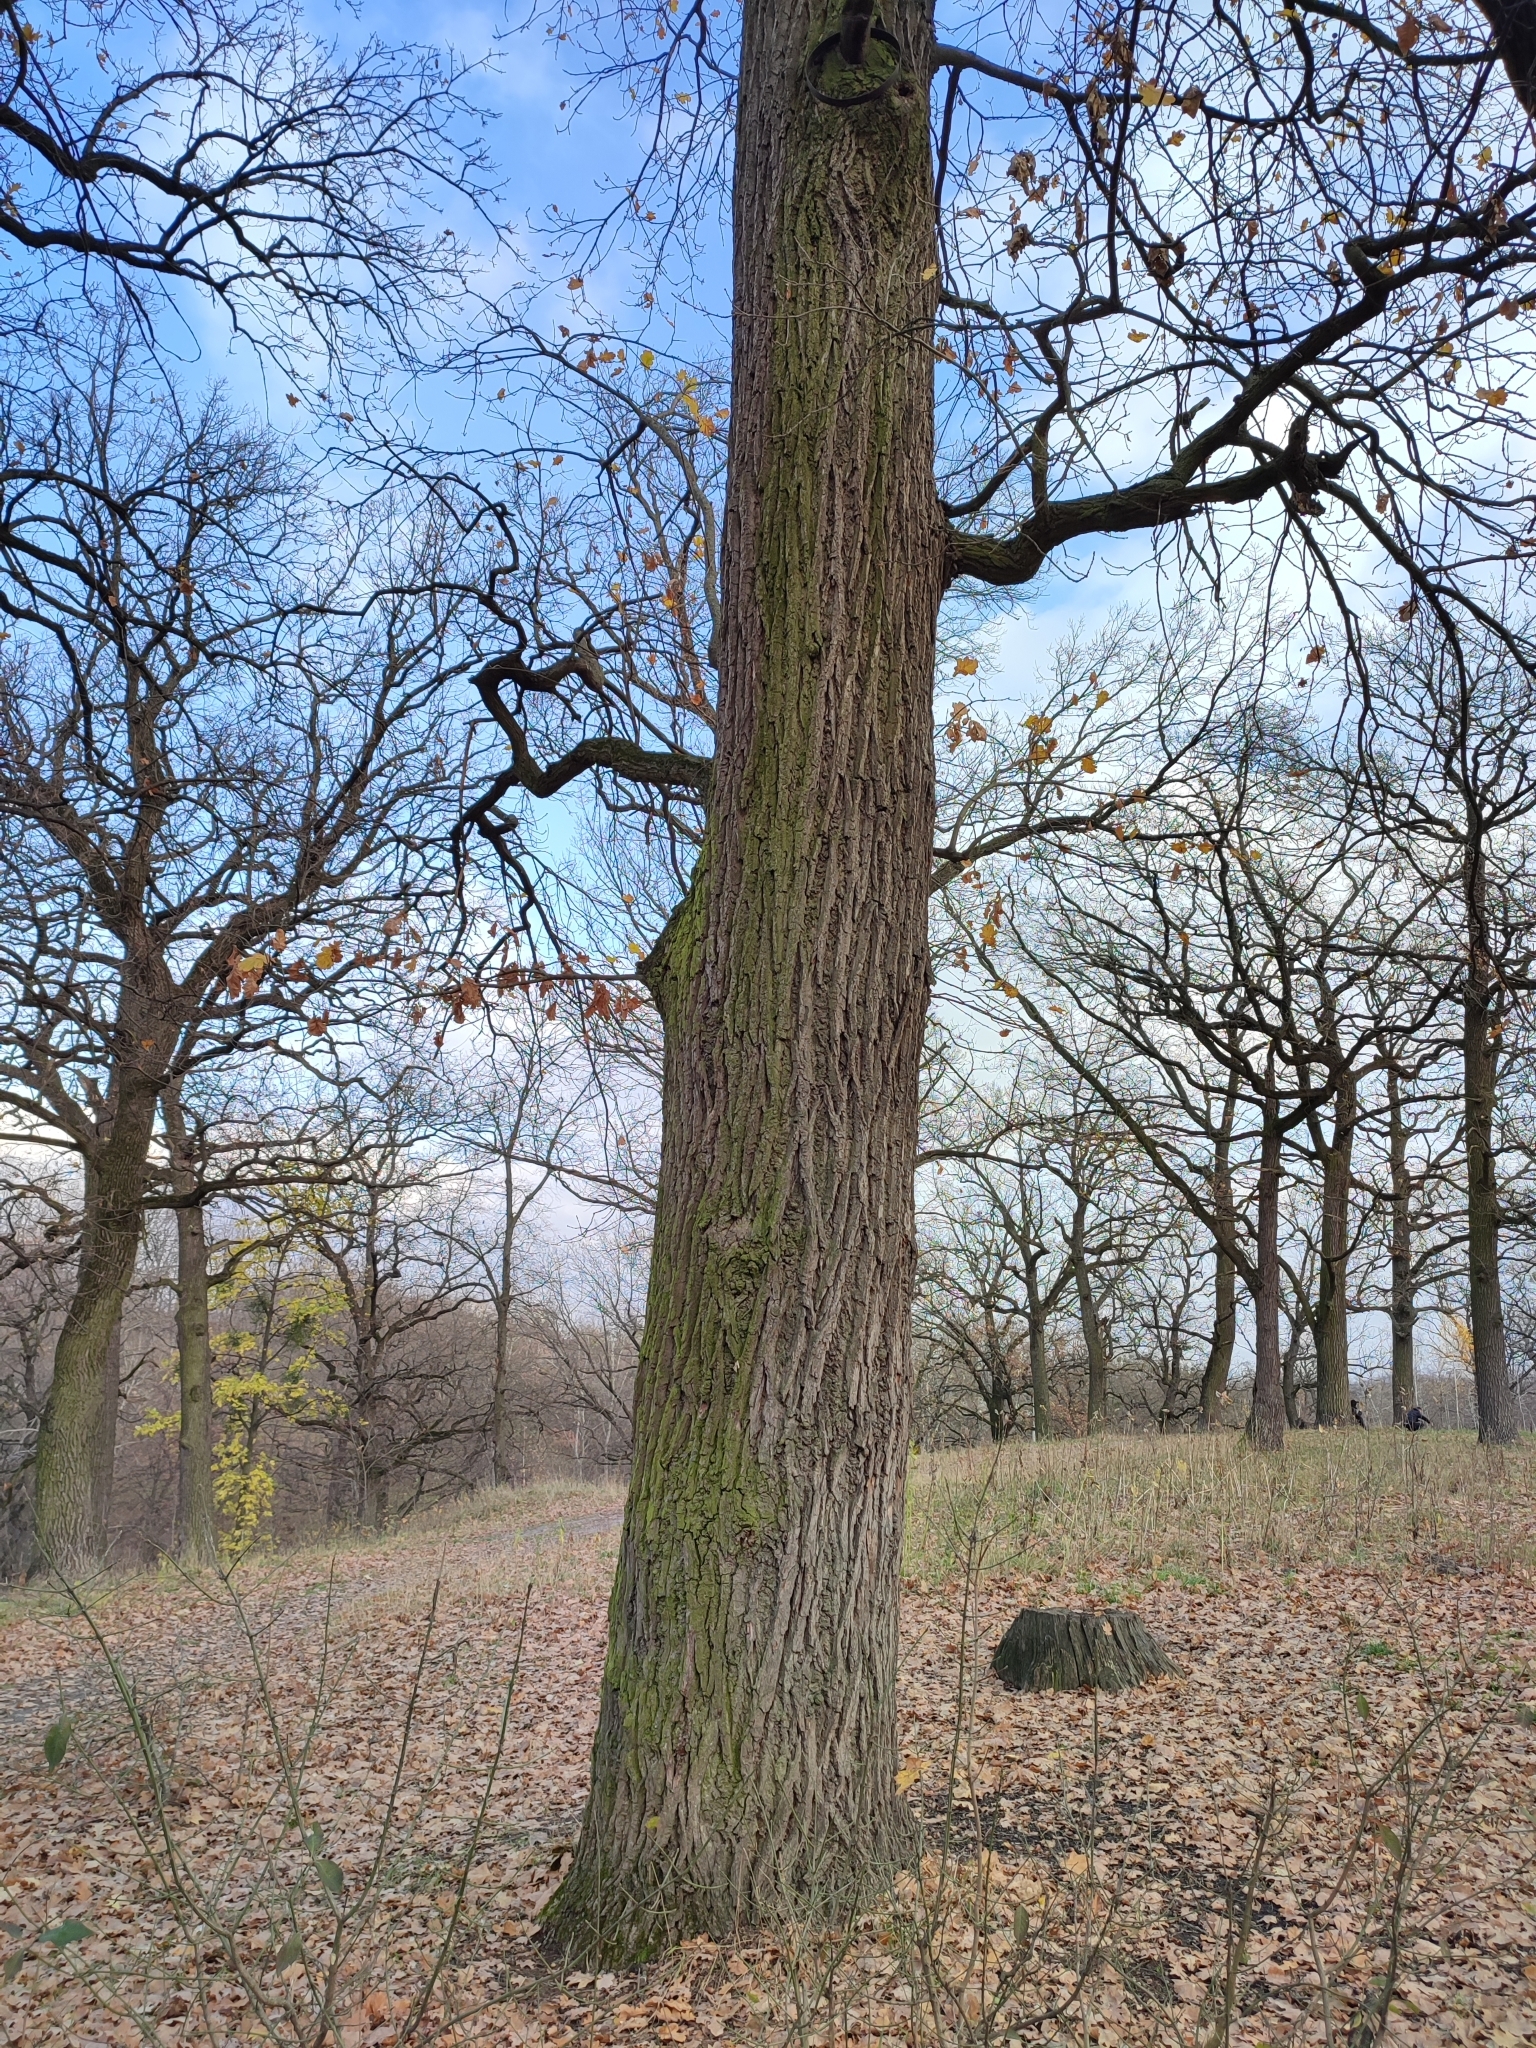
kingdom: Plantae
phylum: Tracheophyta
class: Magnoliopsida
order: Fagales
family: Fagaceae
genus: Quercus
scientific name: Quercus robur
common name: Pedunculate oak
